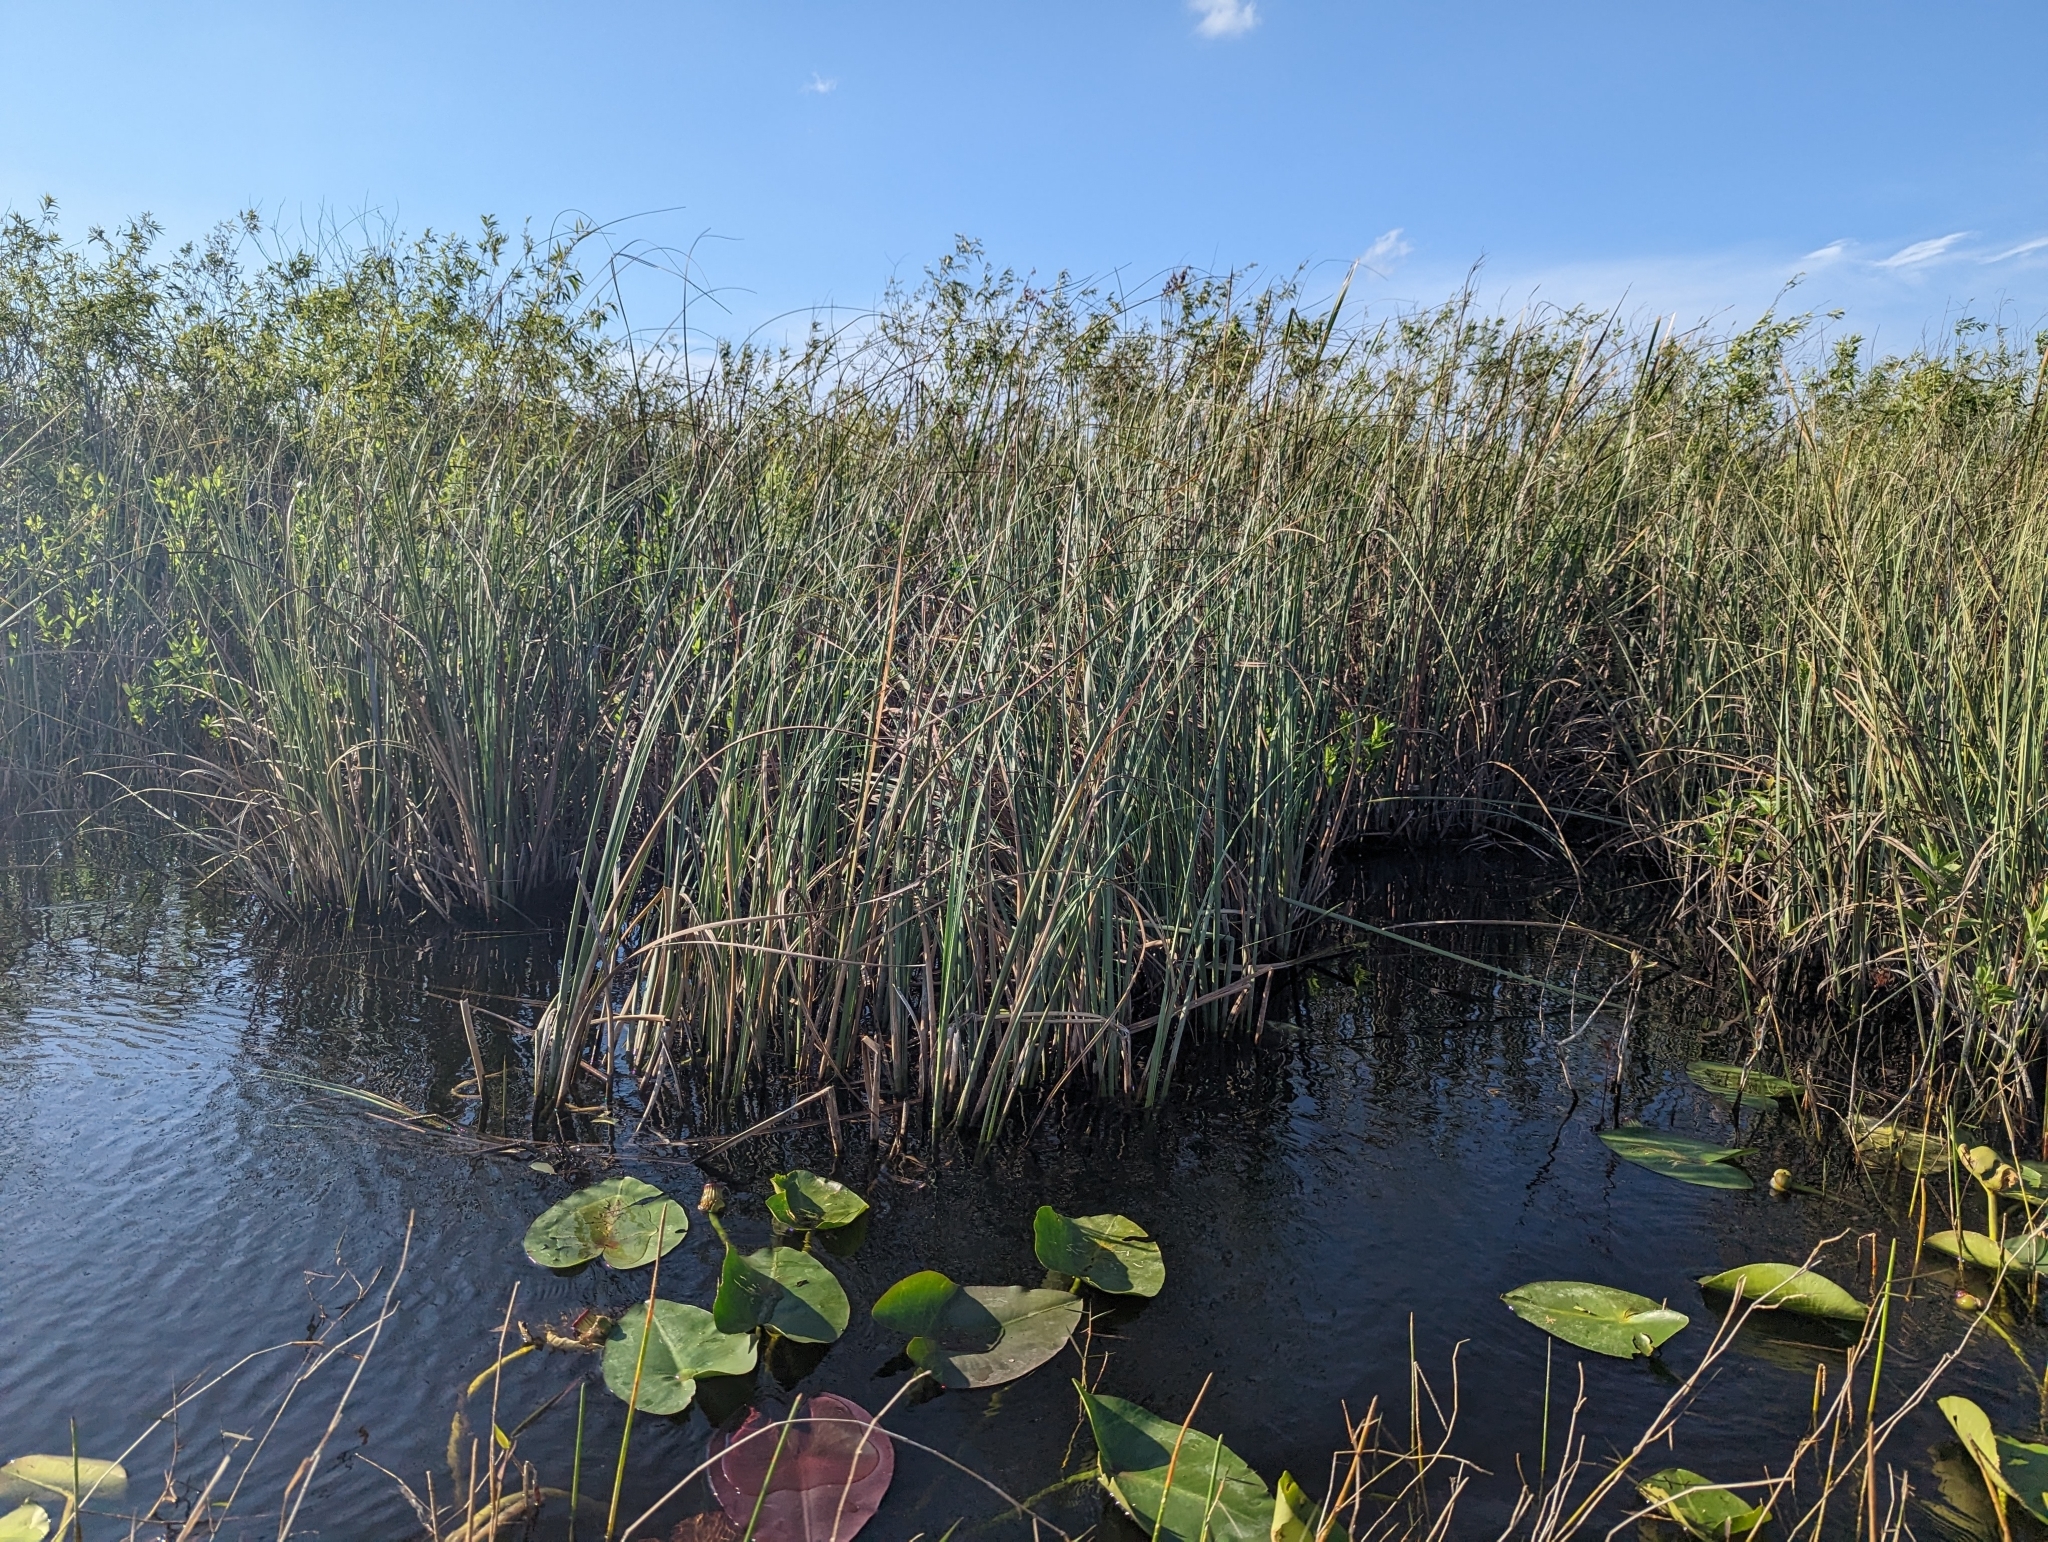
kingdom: Plantae
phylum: Tracheophyta
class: Liliopsida
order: Poales
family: Cyperaceae
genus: Cladium
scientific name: Cladium mariscus
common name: Great fen-sedge
